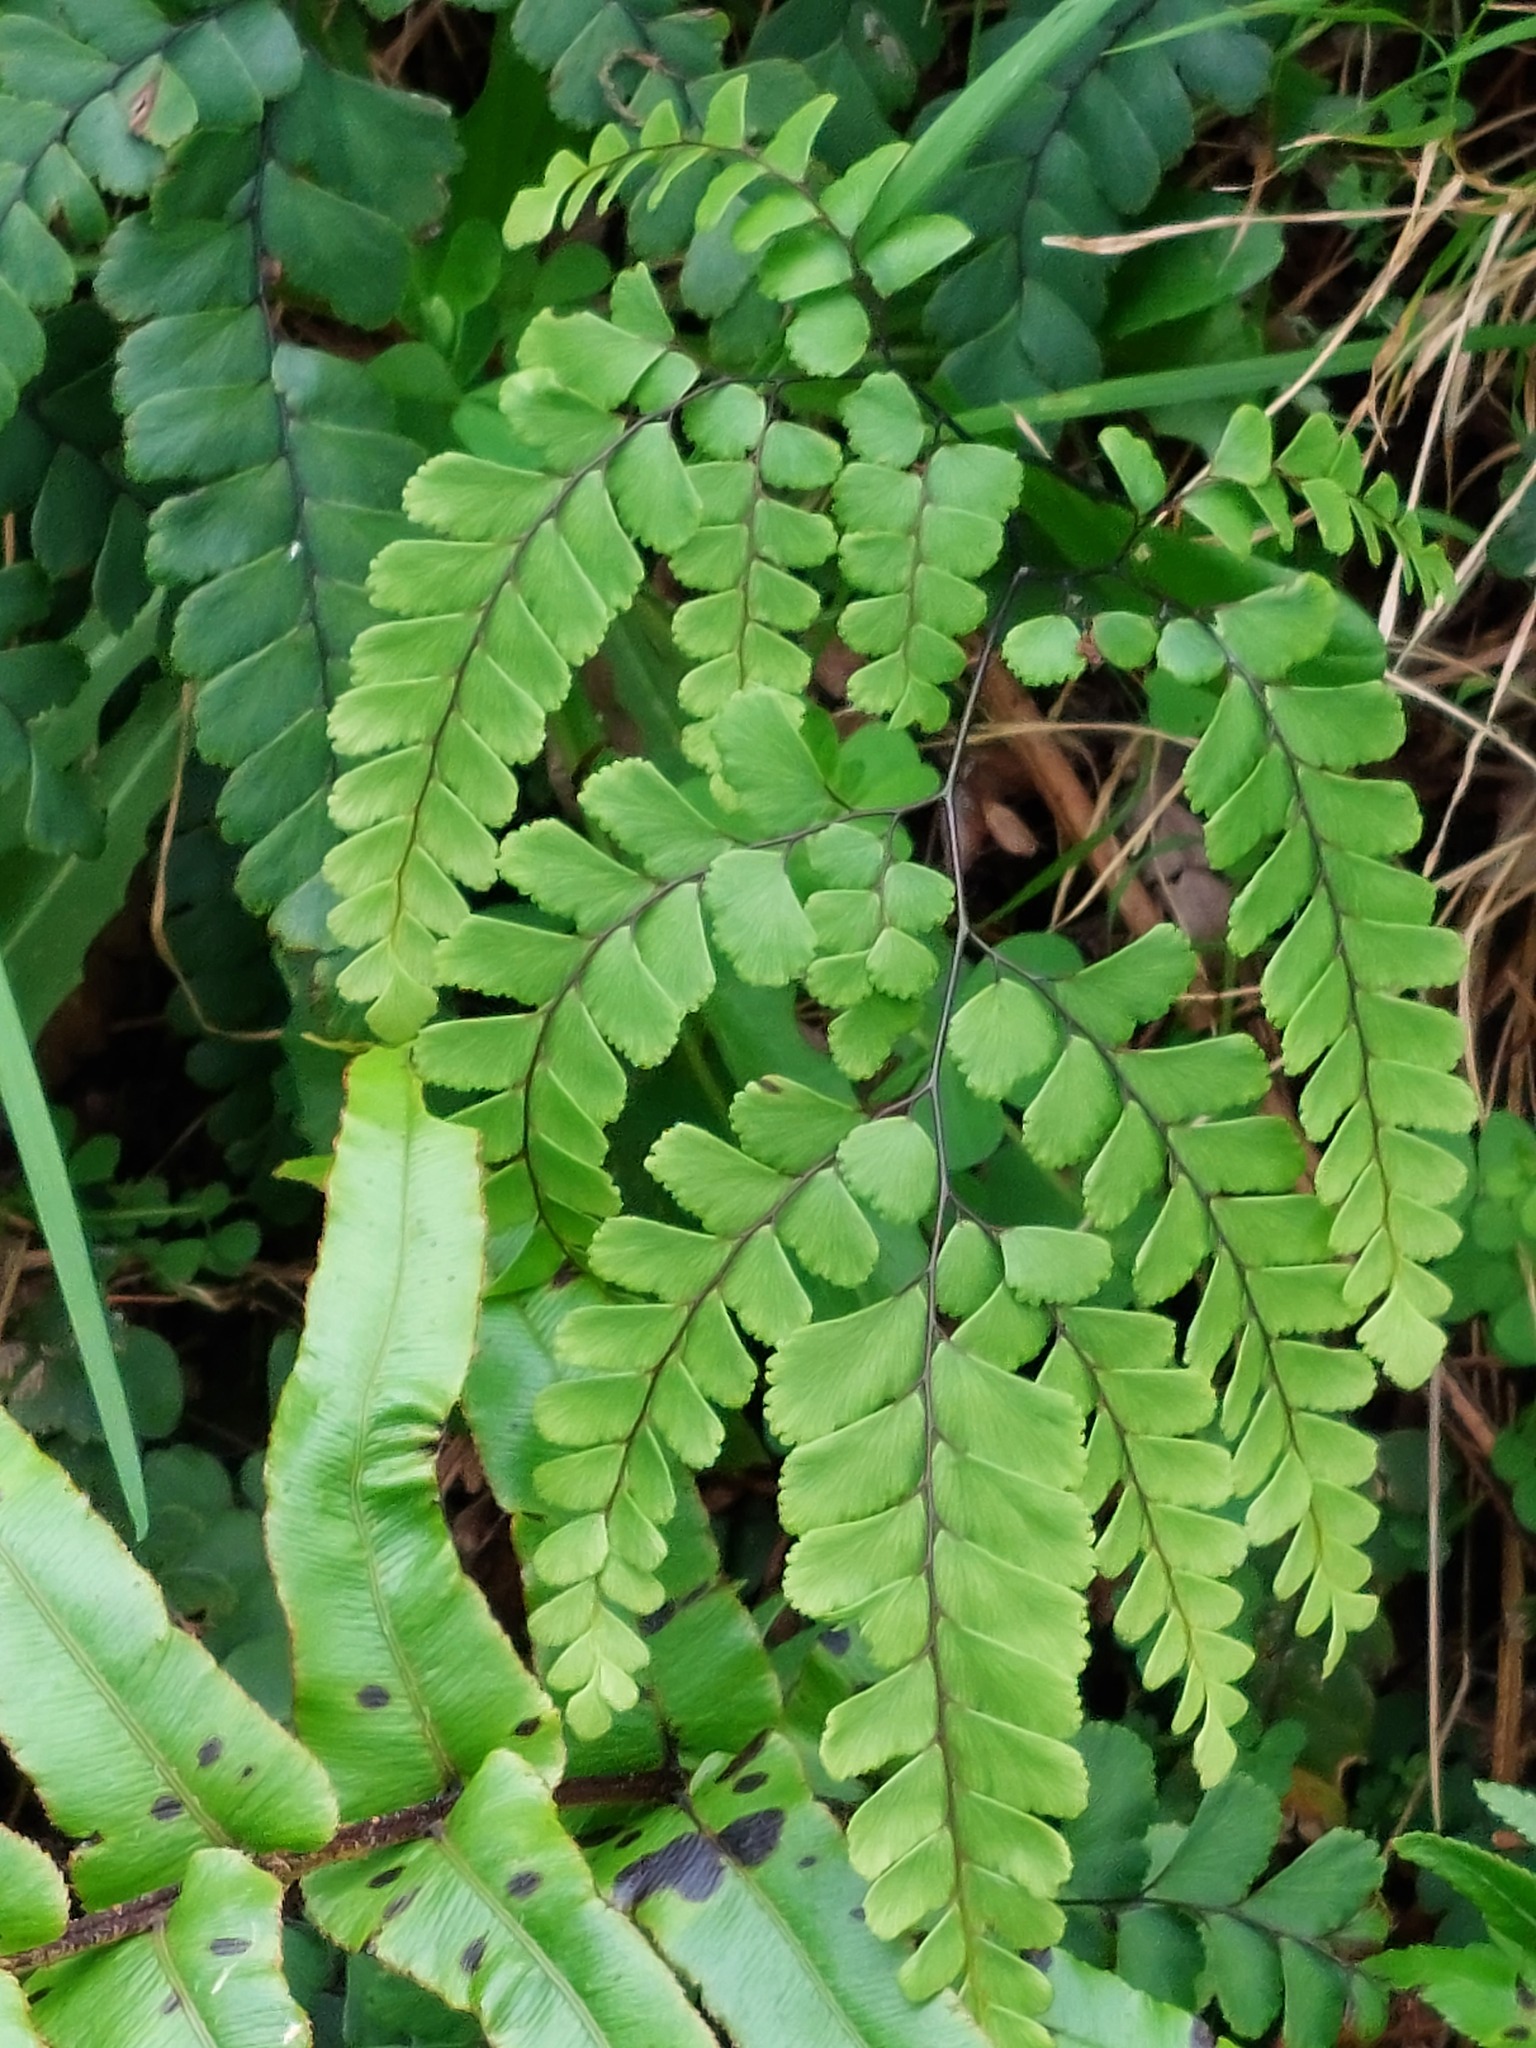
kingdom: Plantae
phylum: Tracheophyta
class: Polypodiopsida
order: Polypodiales
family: Pteridaceae
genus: Adiantum
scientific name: Adiantum cunninghamii
